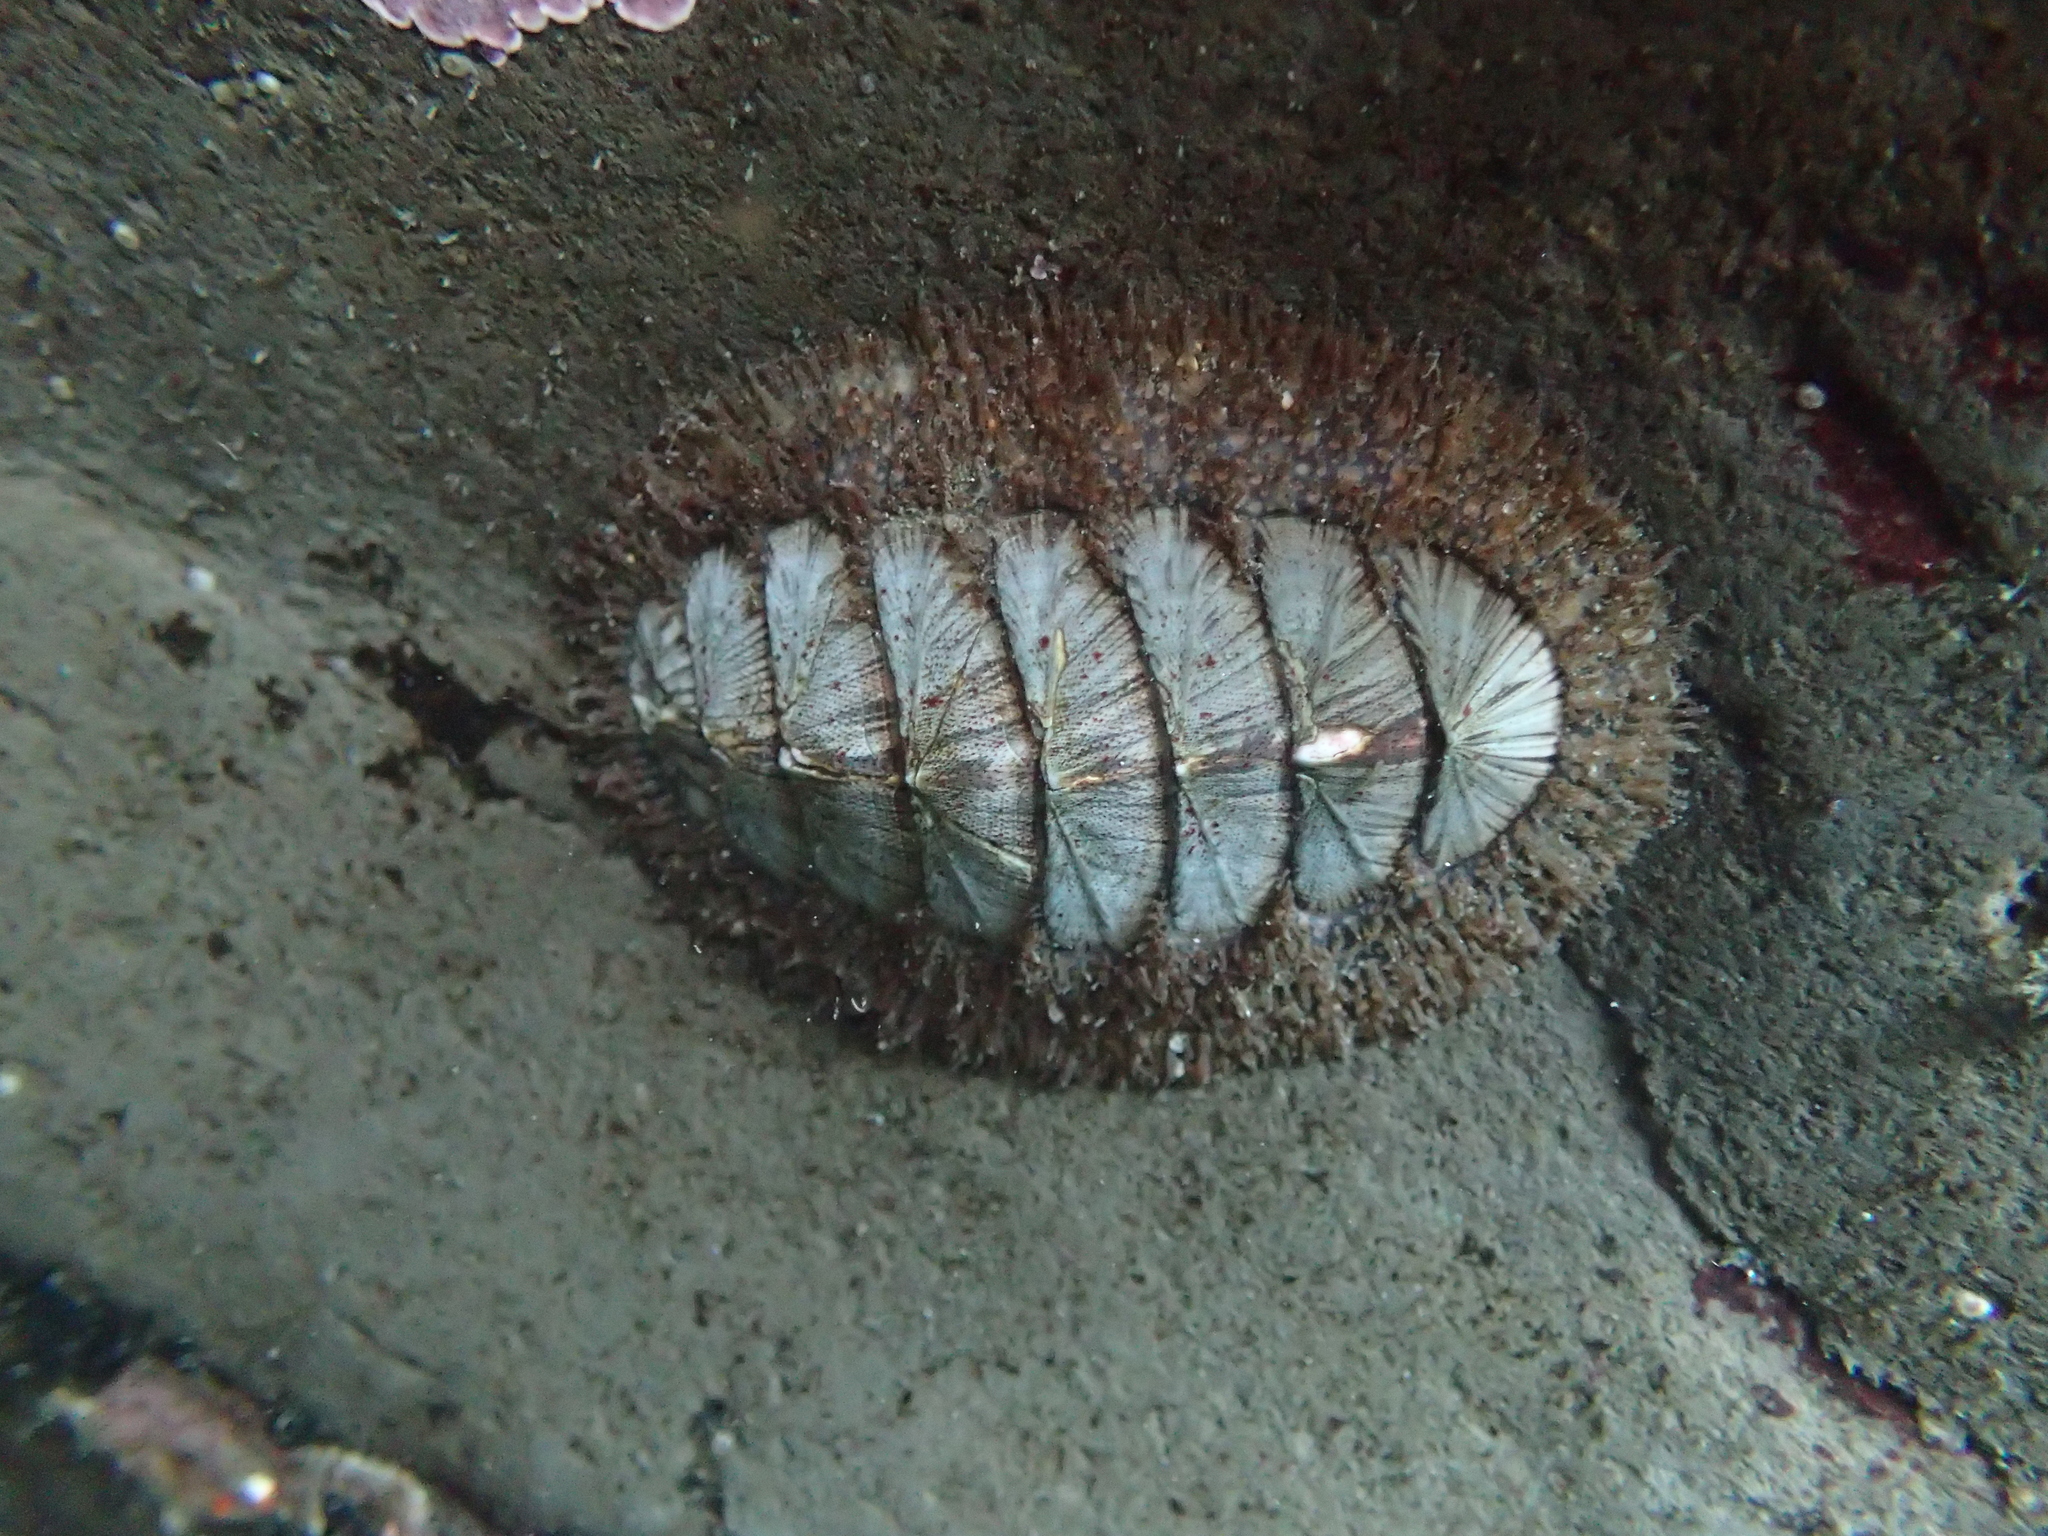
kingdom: Animalia
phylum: Mollusca
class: Polyplacophora
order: Chitonida
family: Mopaliidae
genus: Mopalia
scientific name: Mopalia lignosa
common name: Woody chiton
